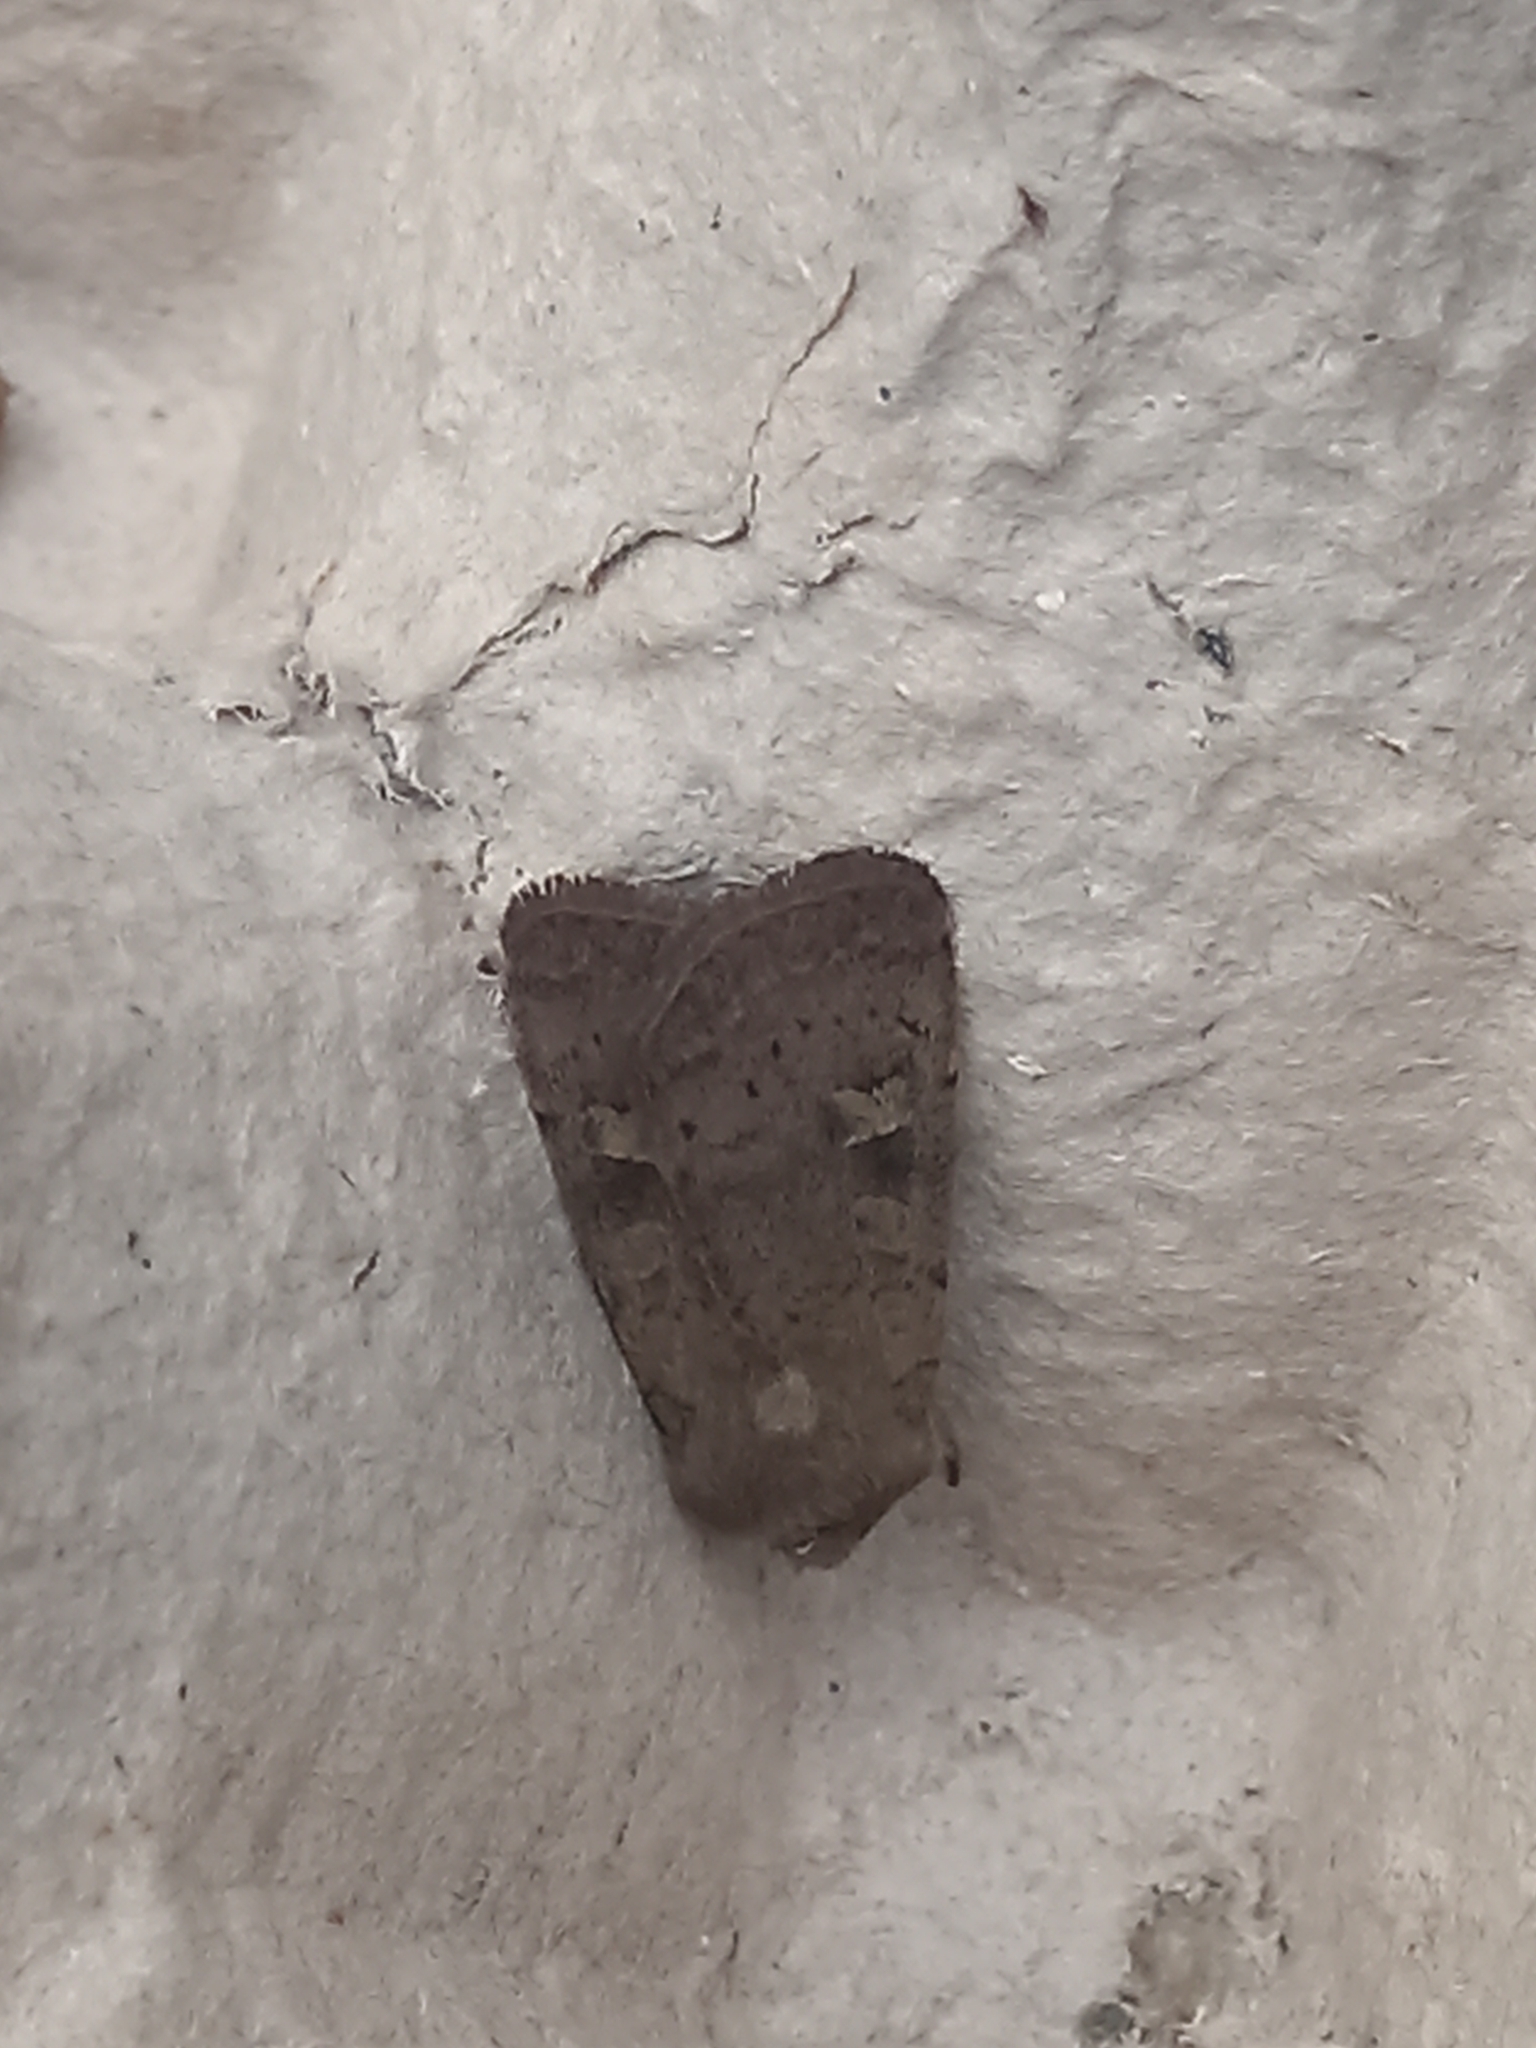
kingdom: Animalia
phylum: Arthropoda
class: Insecta
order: Lepidoptera
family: Noctuidae
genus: Xestia
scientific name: Xestia xanthographa
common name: Square-spot rustic
